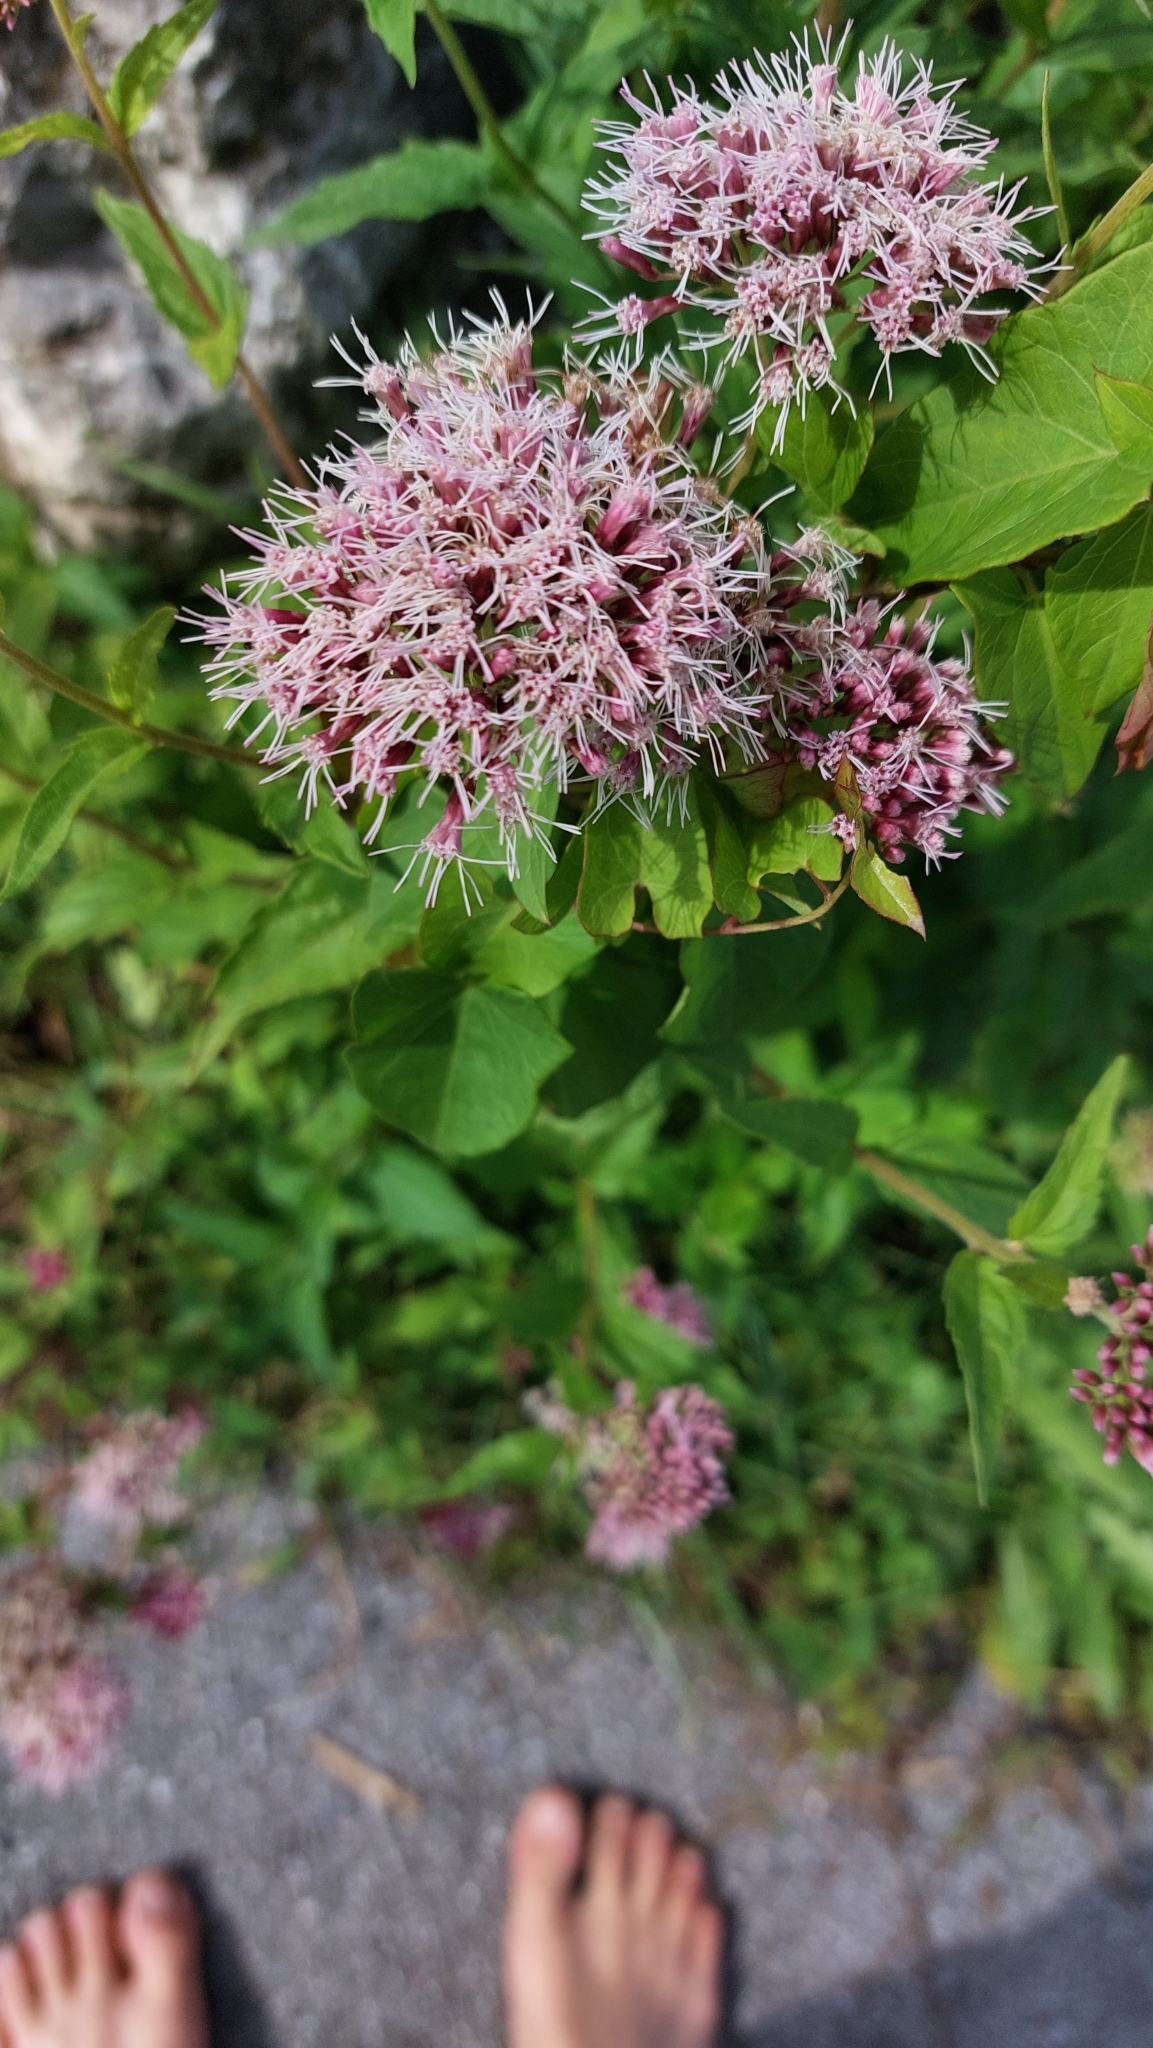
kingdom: Plantae
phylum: Tracheophyta
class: Magnoliopsida
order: Asterales
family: Asteraceae
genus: Eupatorium
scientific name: Eupatorium cannabinum
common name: Hemp-agrimony
